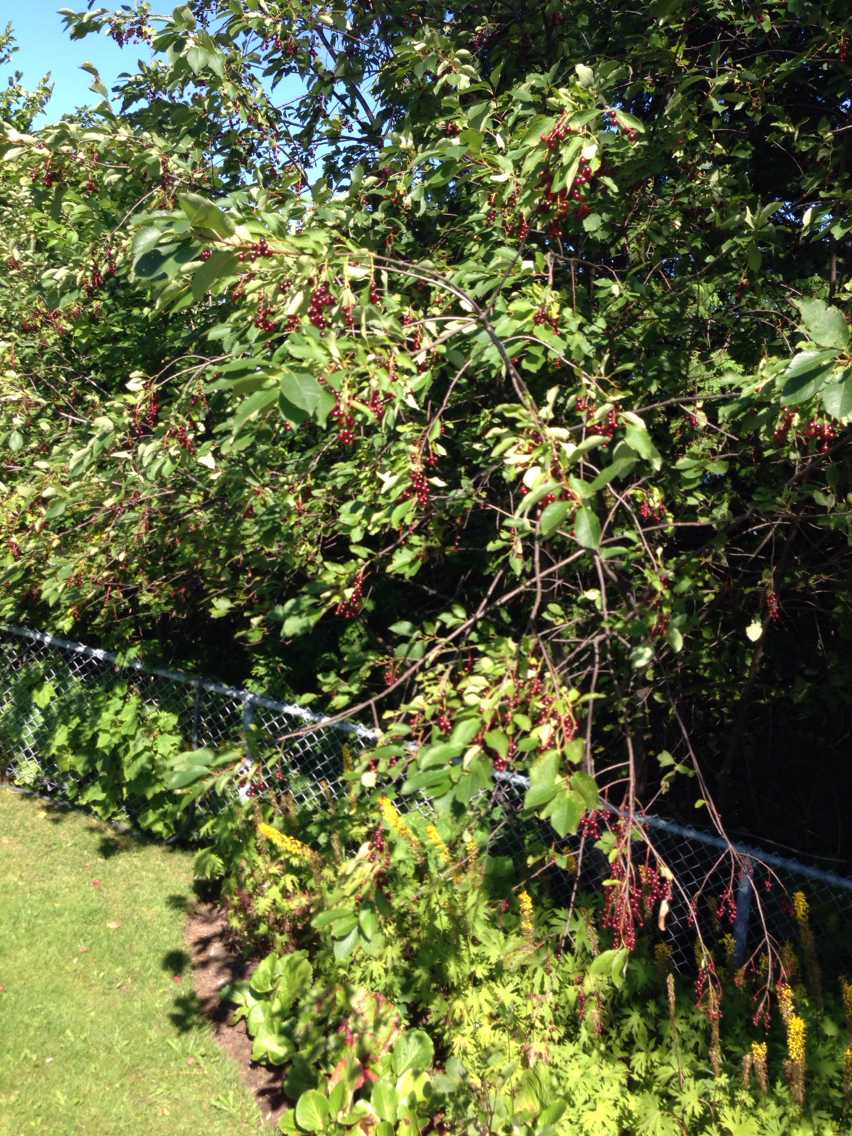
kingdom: Plantae
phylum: Tracheophyta
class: Magnoliopsida
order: Rosales
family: Rosaceae
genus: Prunus
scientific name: Prunus virginiana
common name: Chokecherry
